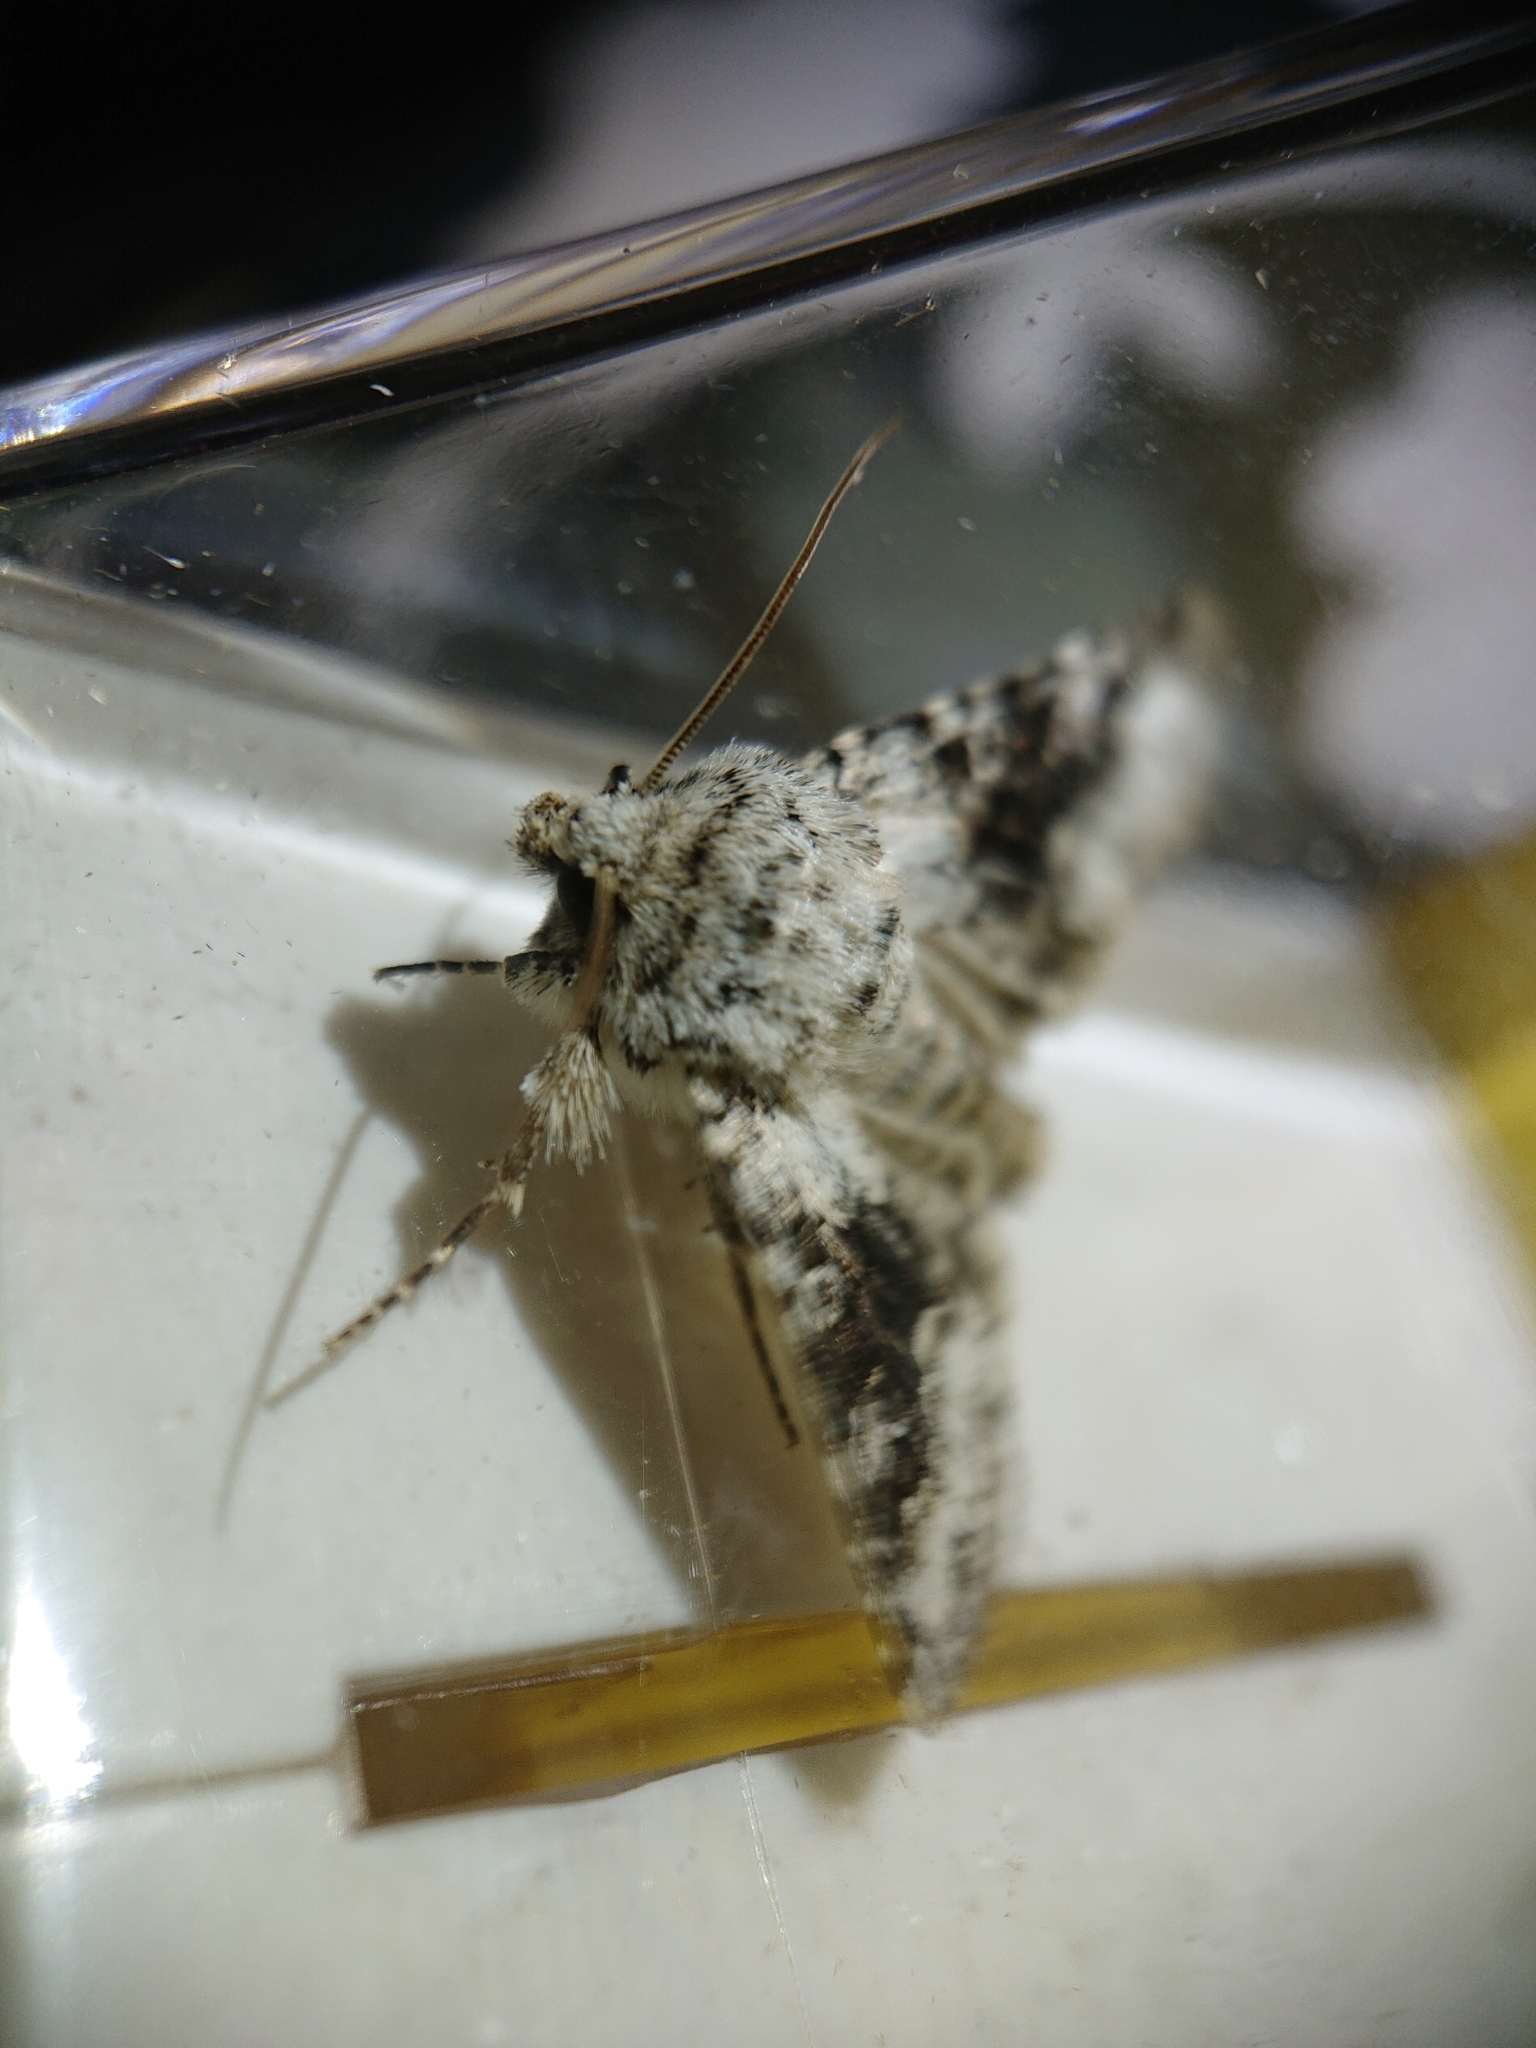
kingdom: Animalia
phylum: Arthropoda
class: Insecta
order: Lepidoptera
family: Noctuidae
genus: Hecatera
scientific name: Hecatera bicolorata
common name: Broad-barred white
